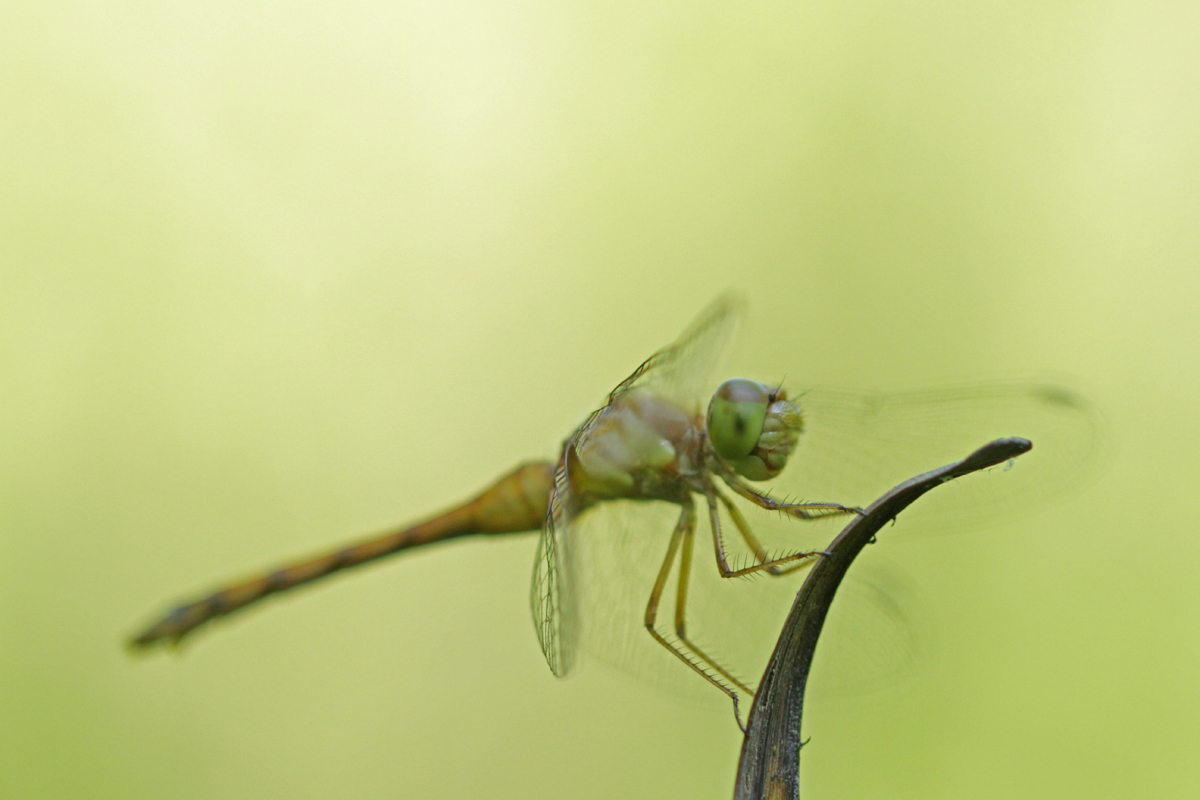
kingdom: Animalia
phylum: Arthropoda
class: Insecta
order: Odonata
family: Libellulidae
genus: Sympetrum
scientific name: Sympetrum vicinum
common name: Autumn meadowhawk
